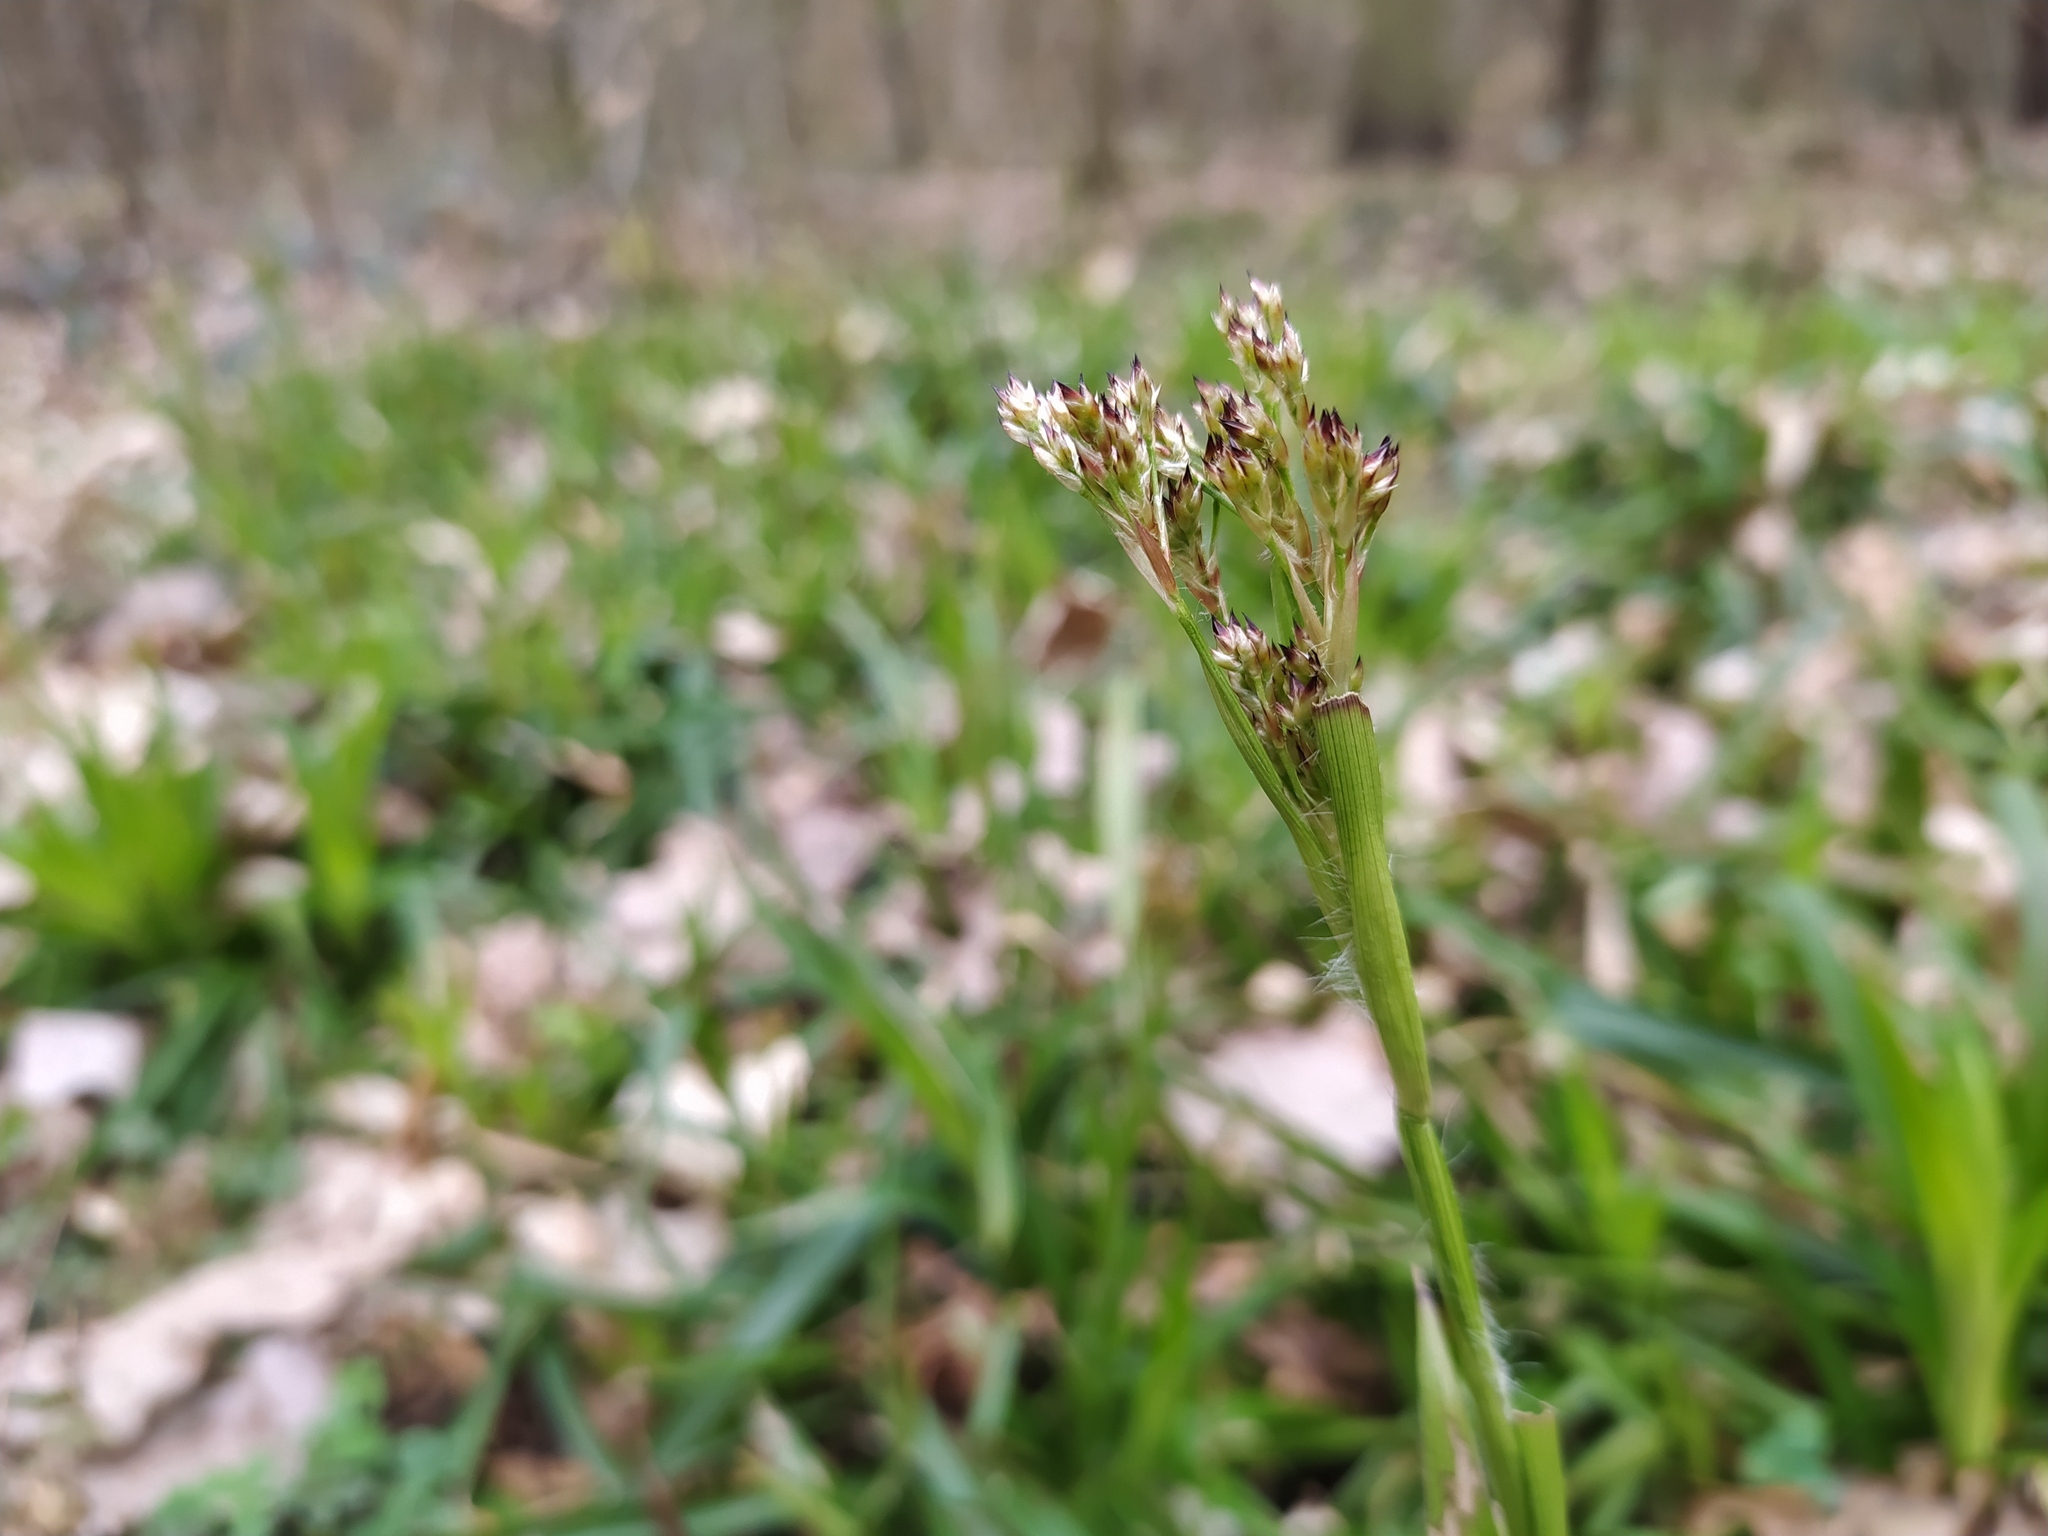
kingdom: Plantae
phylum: Tracheophyta
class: Liliopsida
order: Poales
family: Juncaceae
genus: Luzula
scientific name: Luzula sylvatica
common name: Great wood-rush
